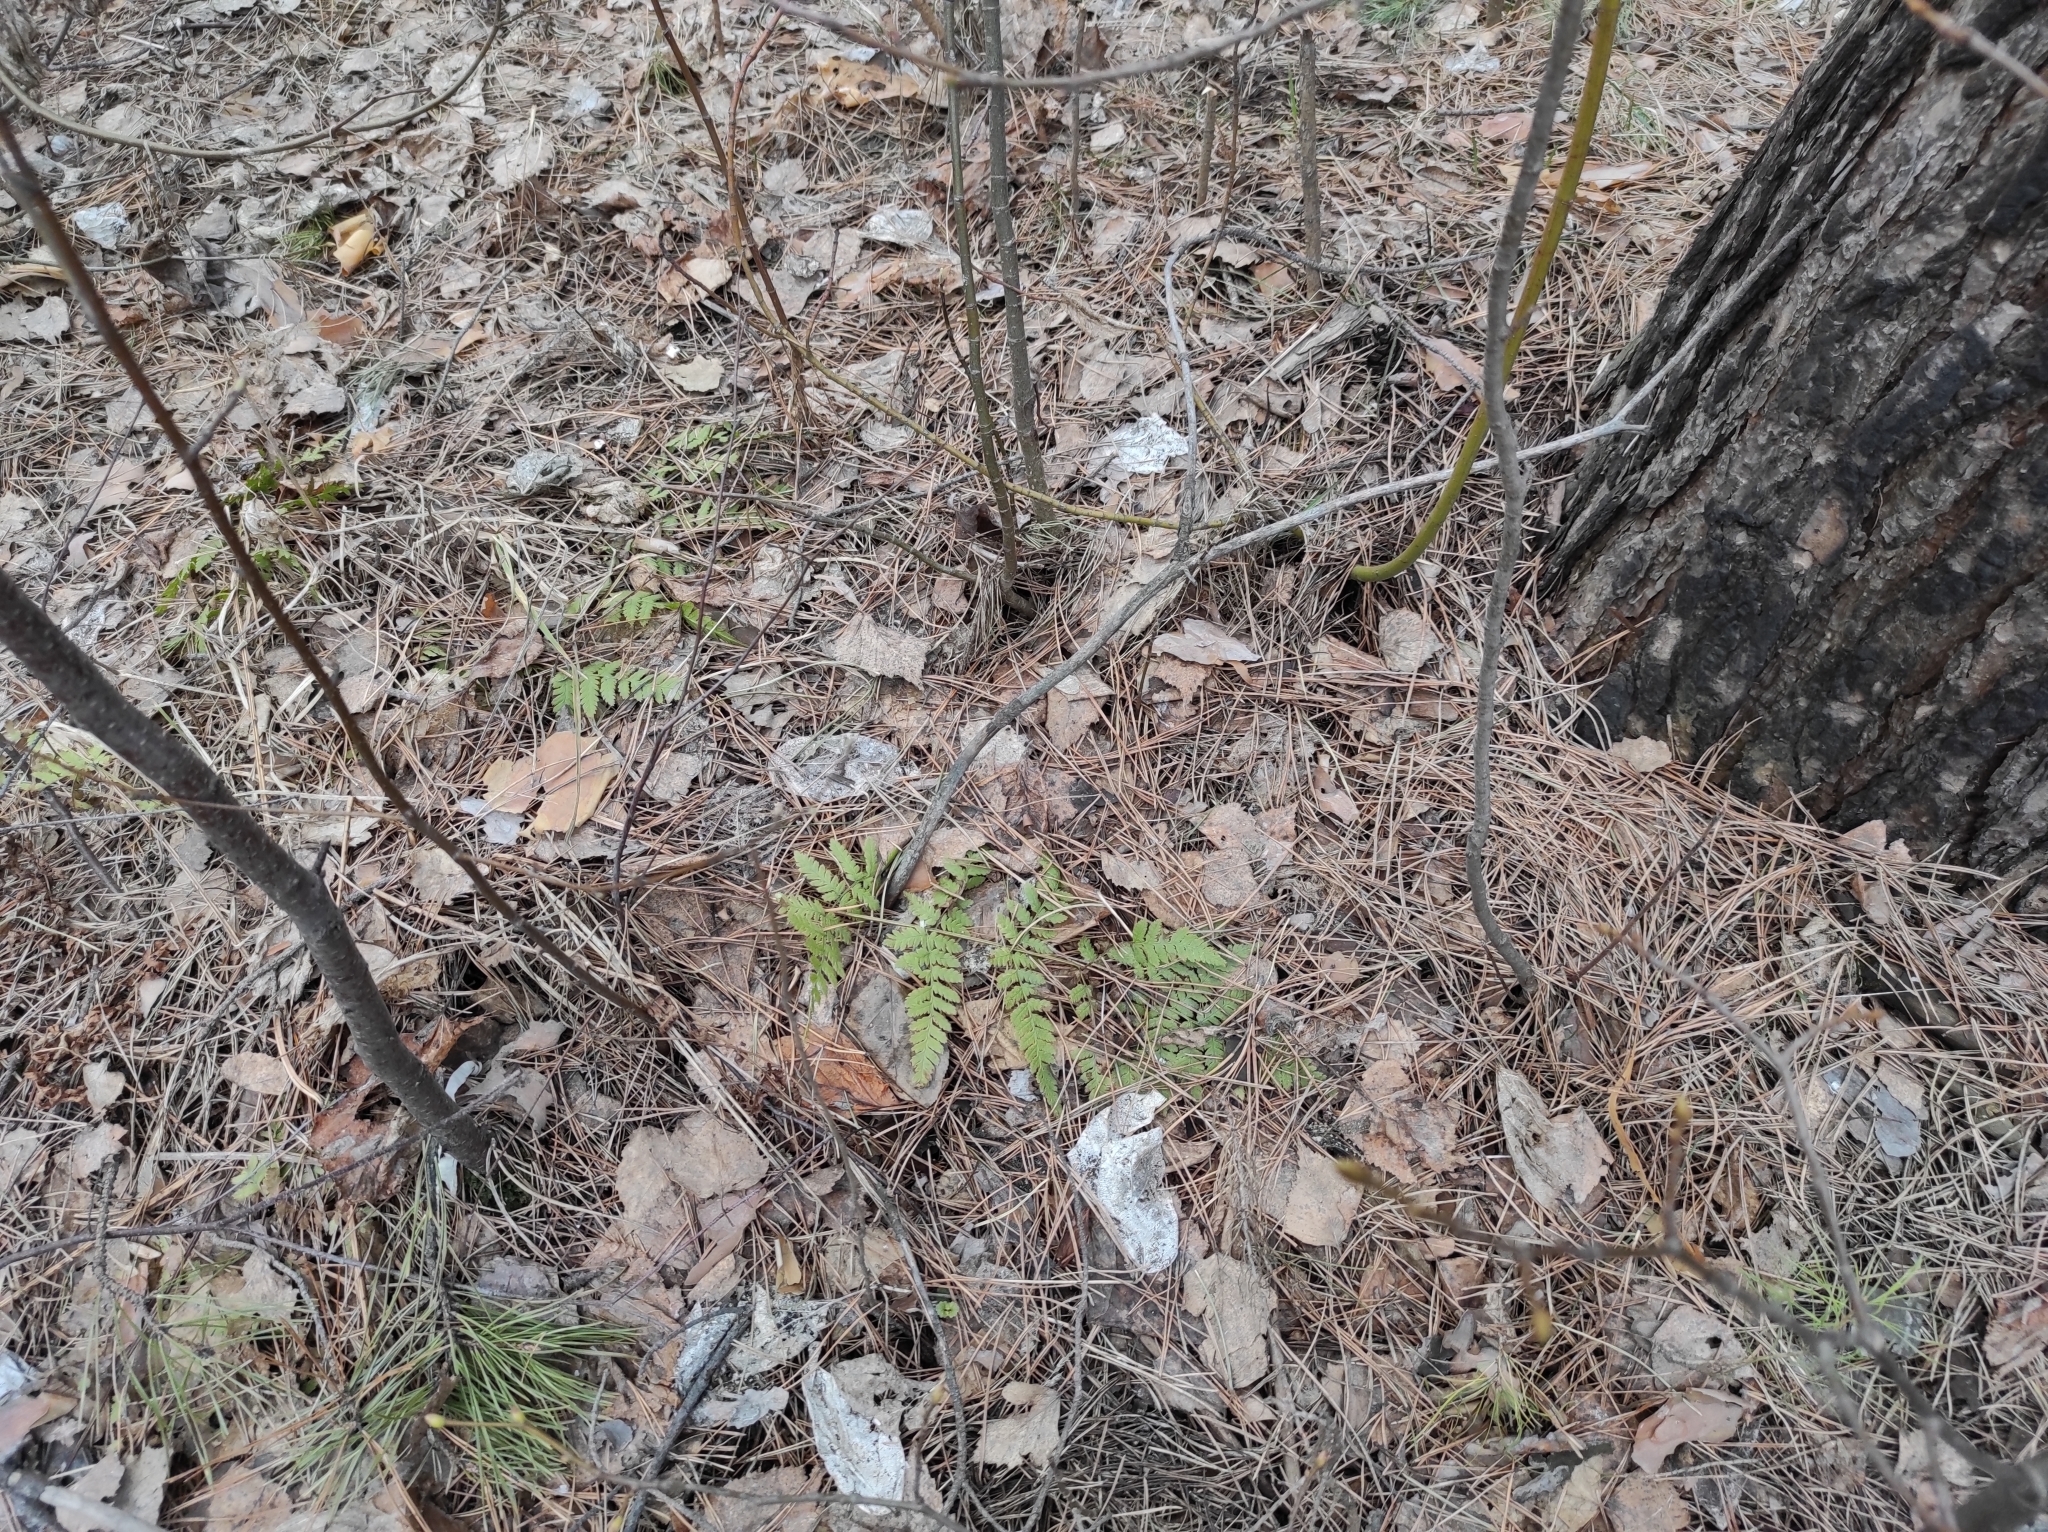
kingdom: Plantae
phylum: Tracheophyta
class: Polypodiopsida
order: Polypodiales
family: Dryopteridaceae
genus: Dryopteris
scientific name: Dryopteris carthusiana
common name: Narrow buckler-fern
